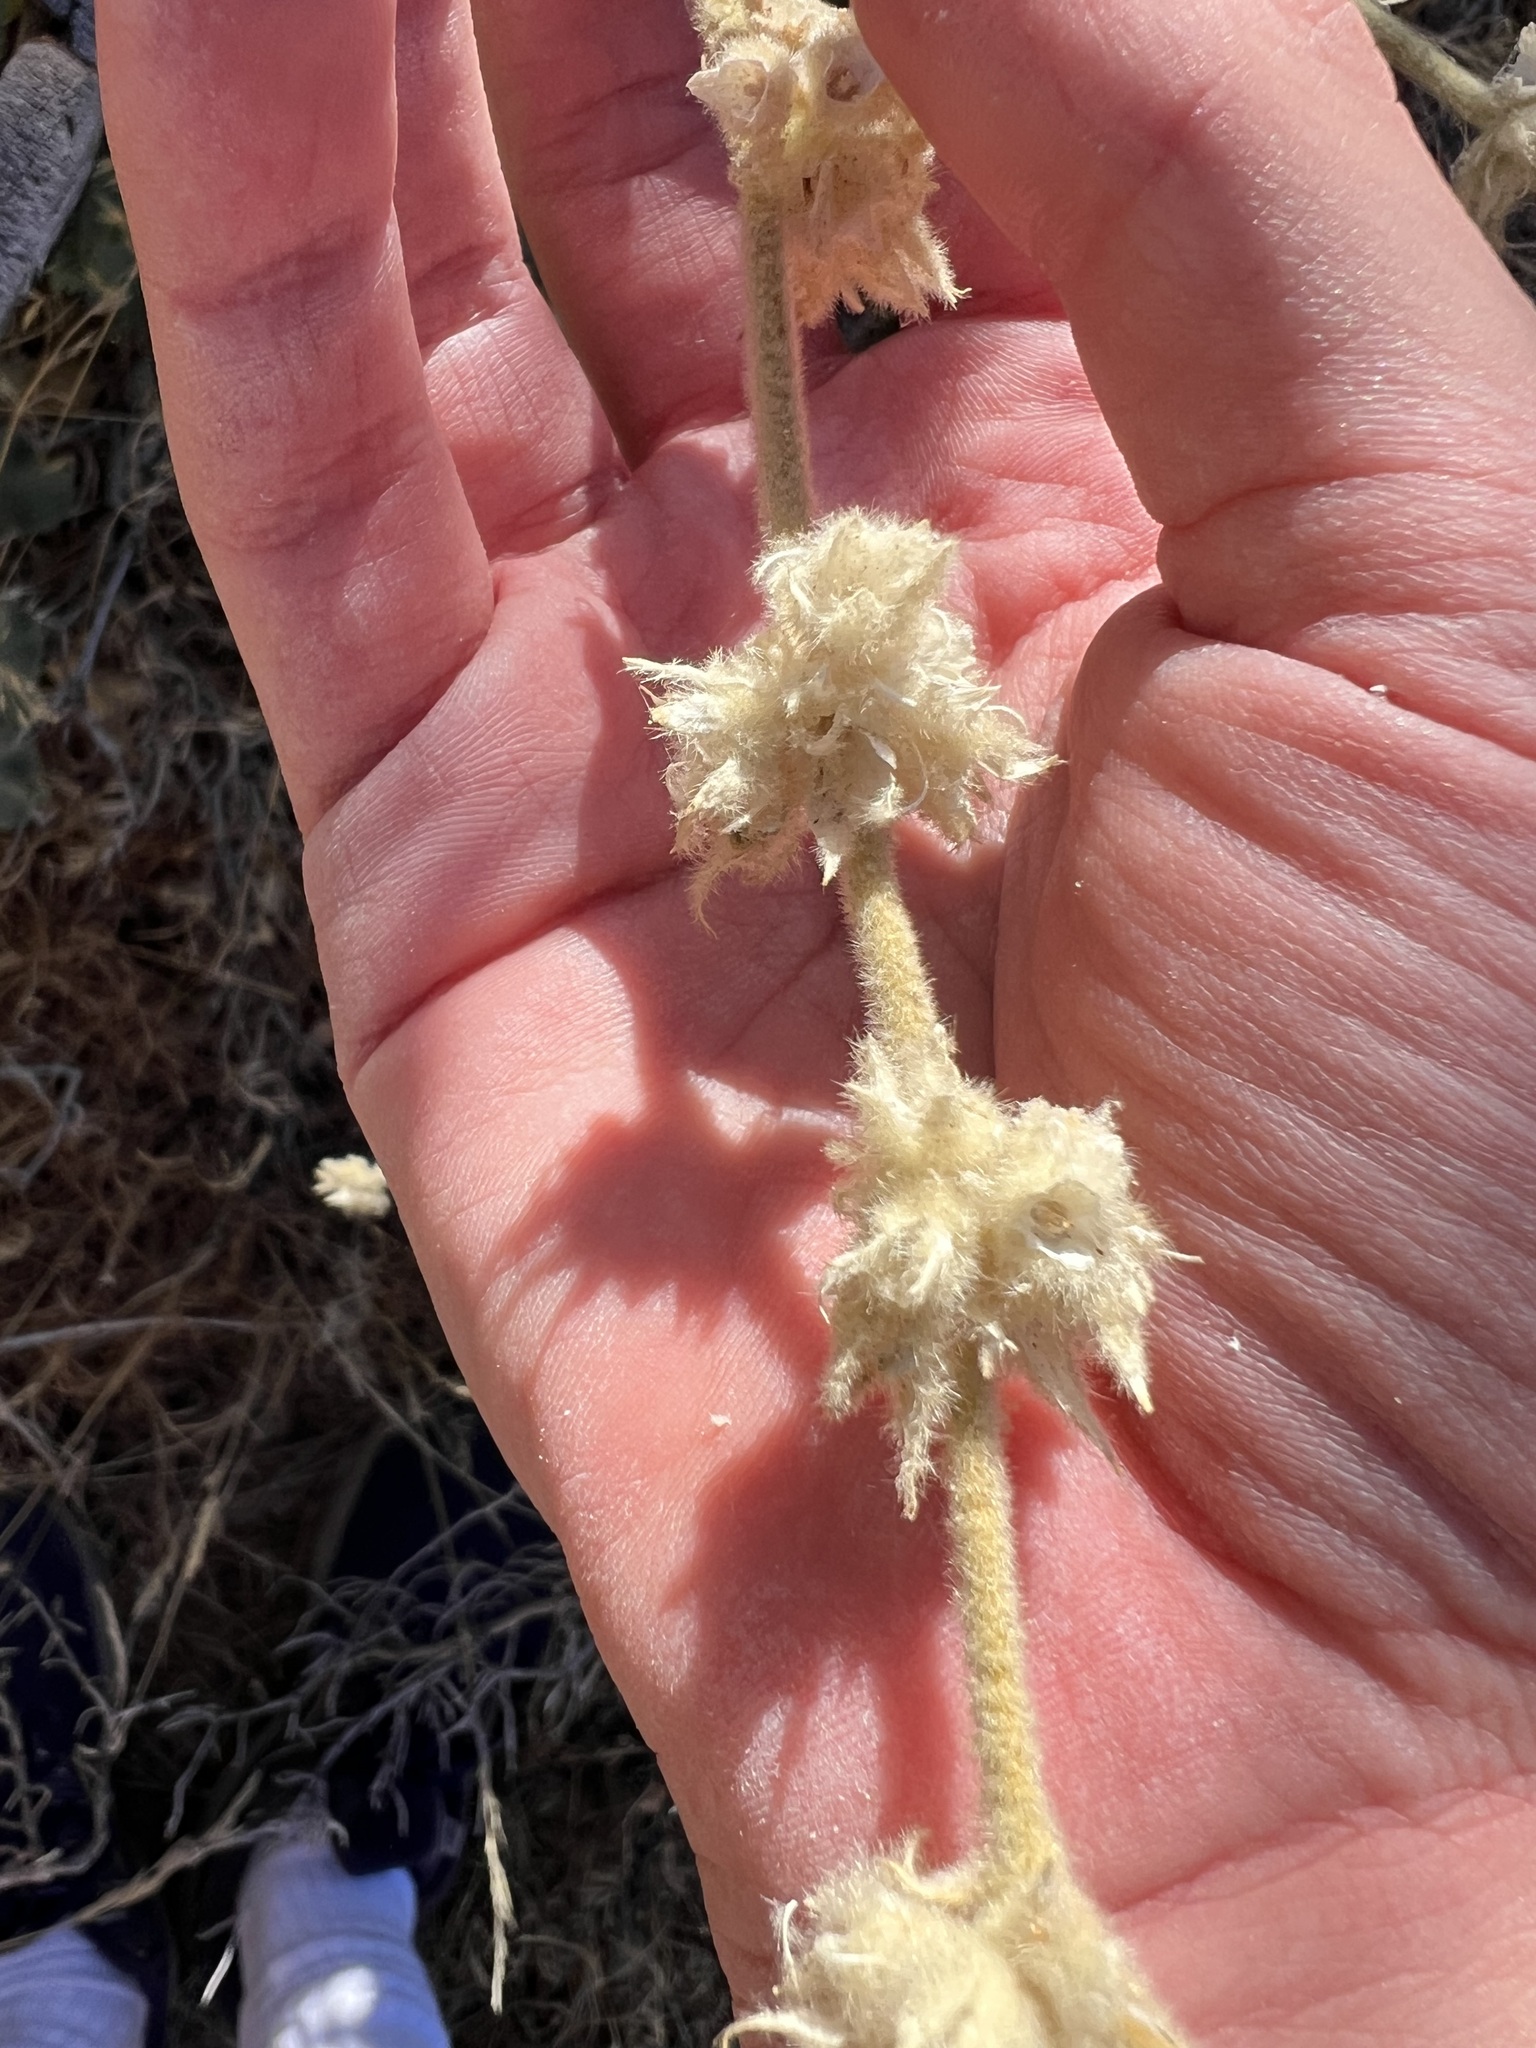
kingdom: Plantae
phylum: Tracheophyta
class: Magnoliopsida
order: Malvales
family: Malvaceae
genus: Malacothamnus
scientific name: Malacothamnus fremontii
